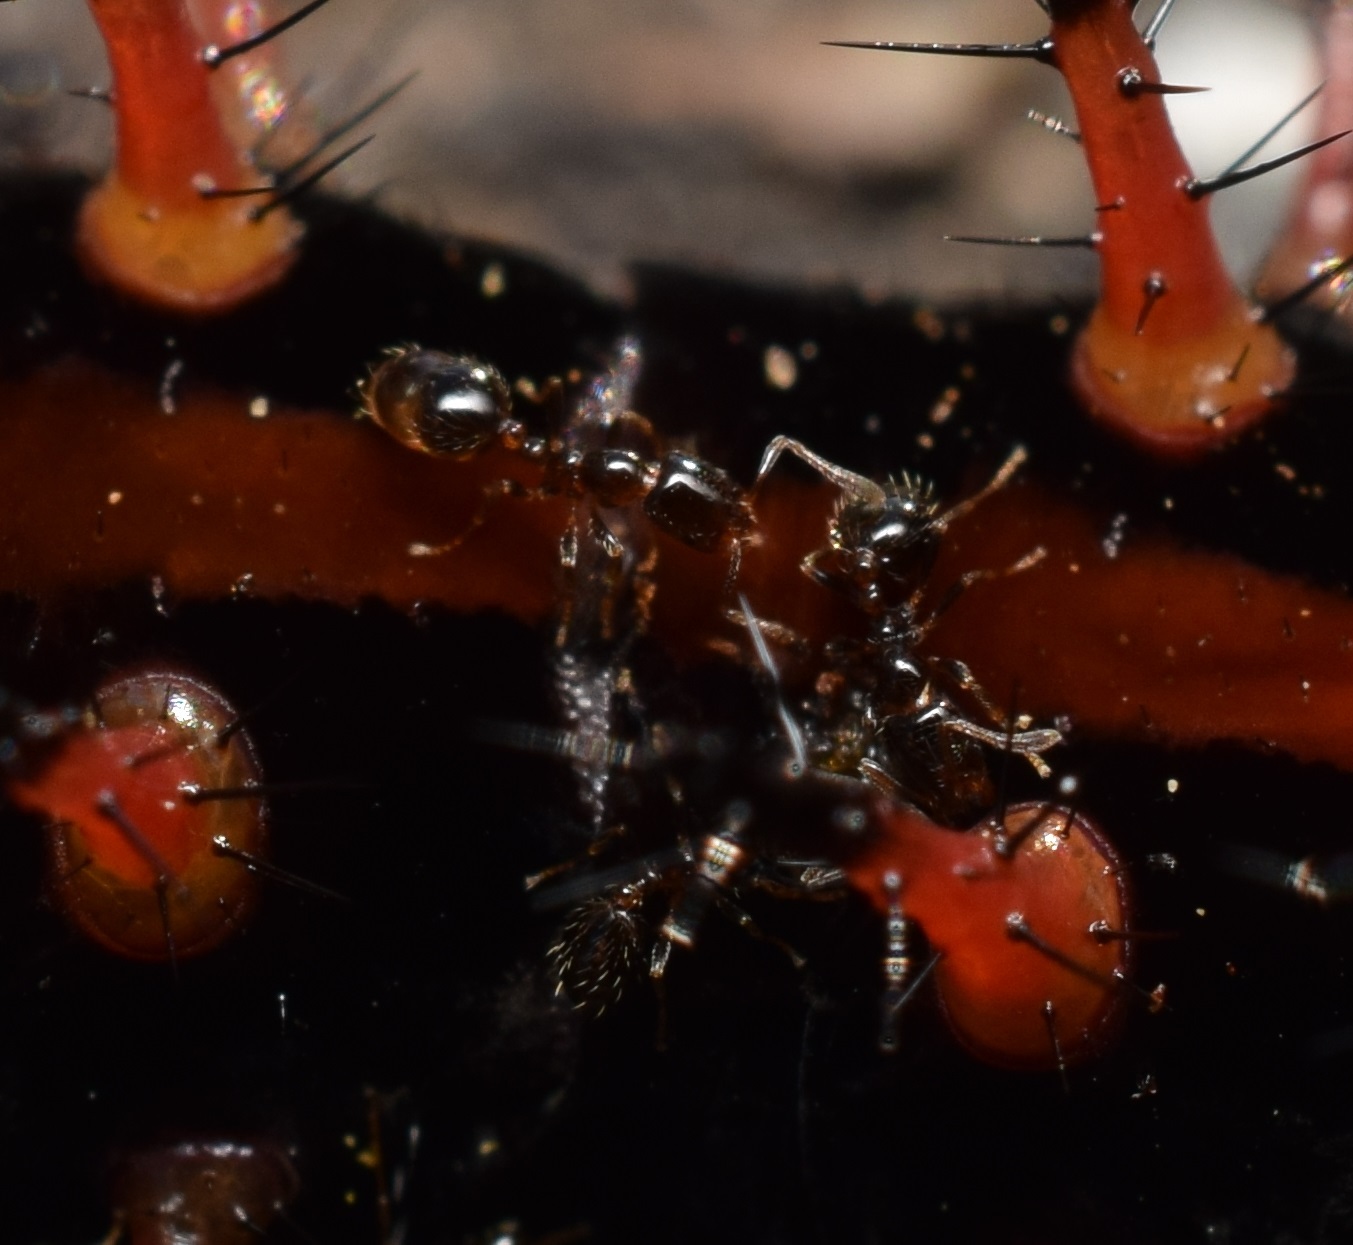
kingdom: Animalia
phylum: Arthropoda
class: Insecta
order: Hymenoptera
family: Formicidae
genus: Monomorium
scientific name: Monomorium chinense
